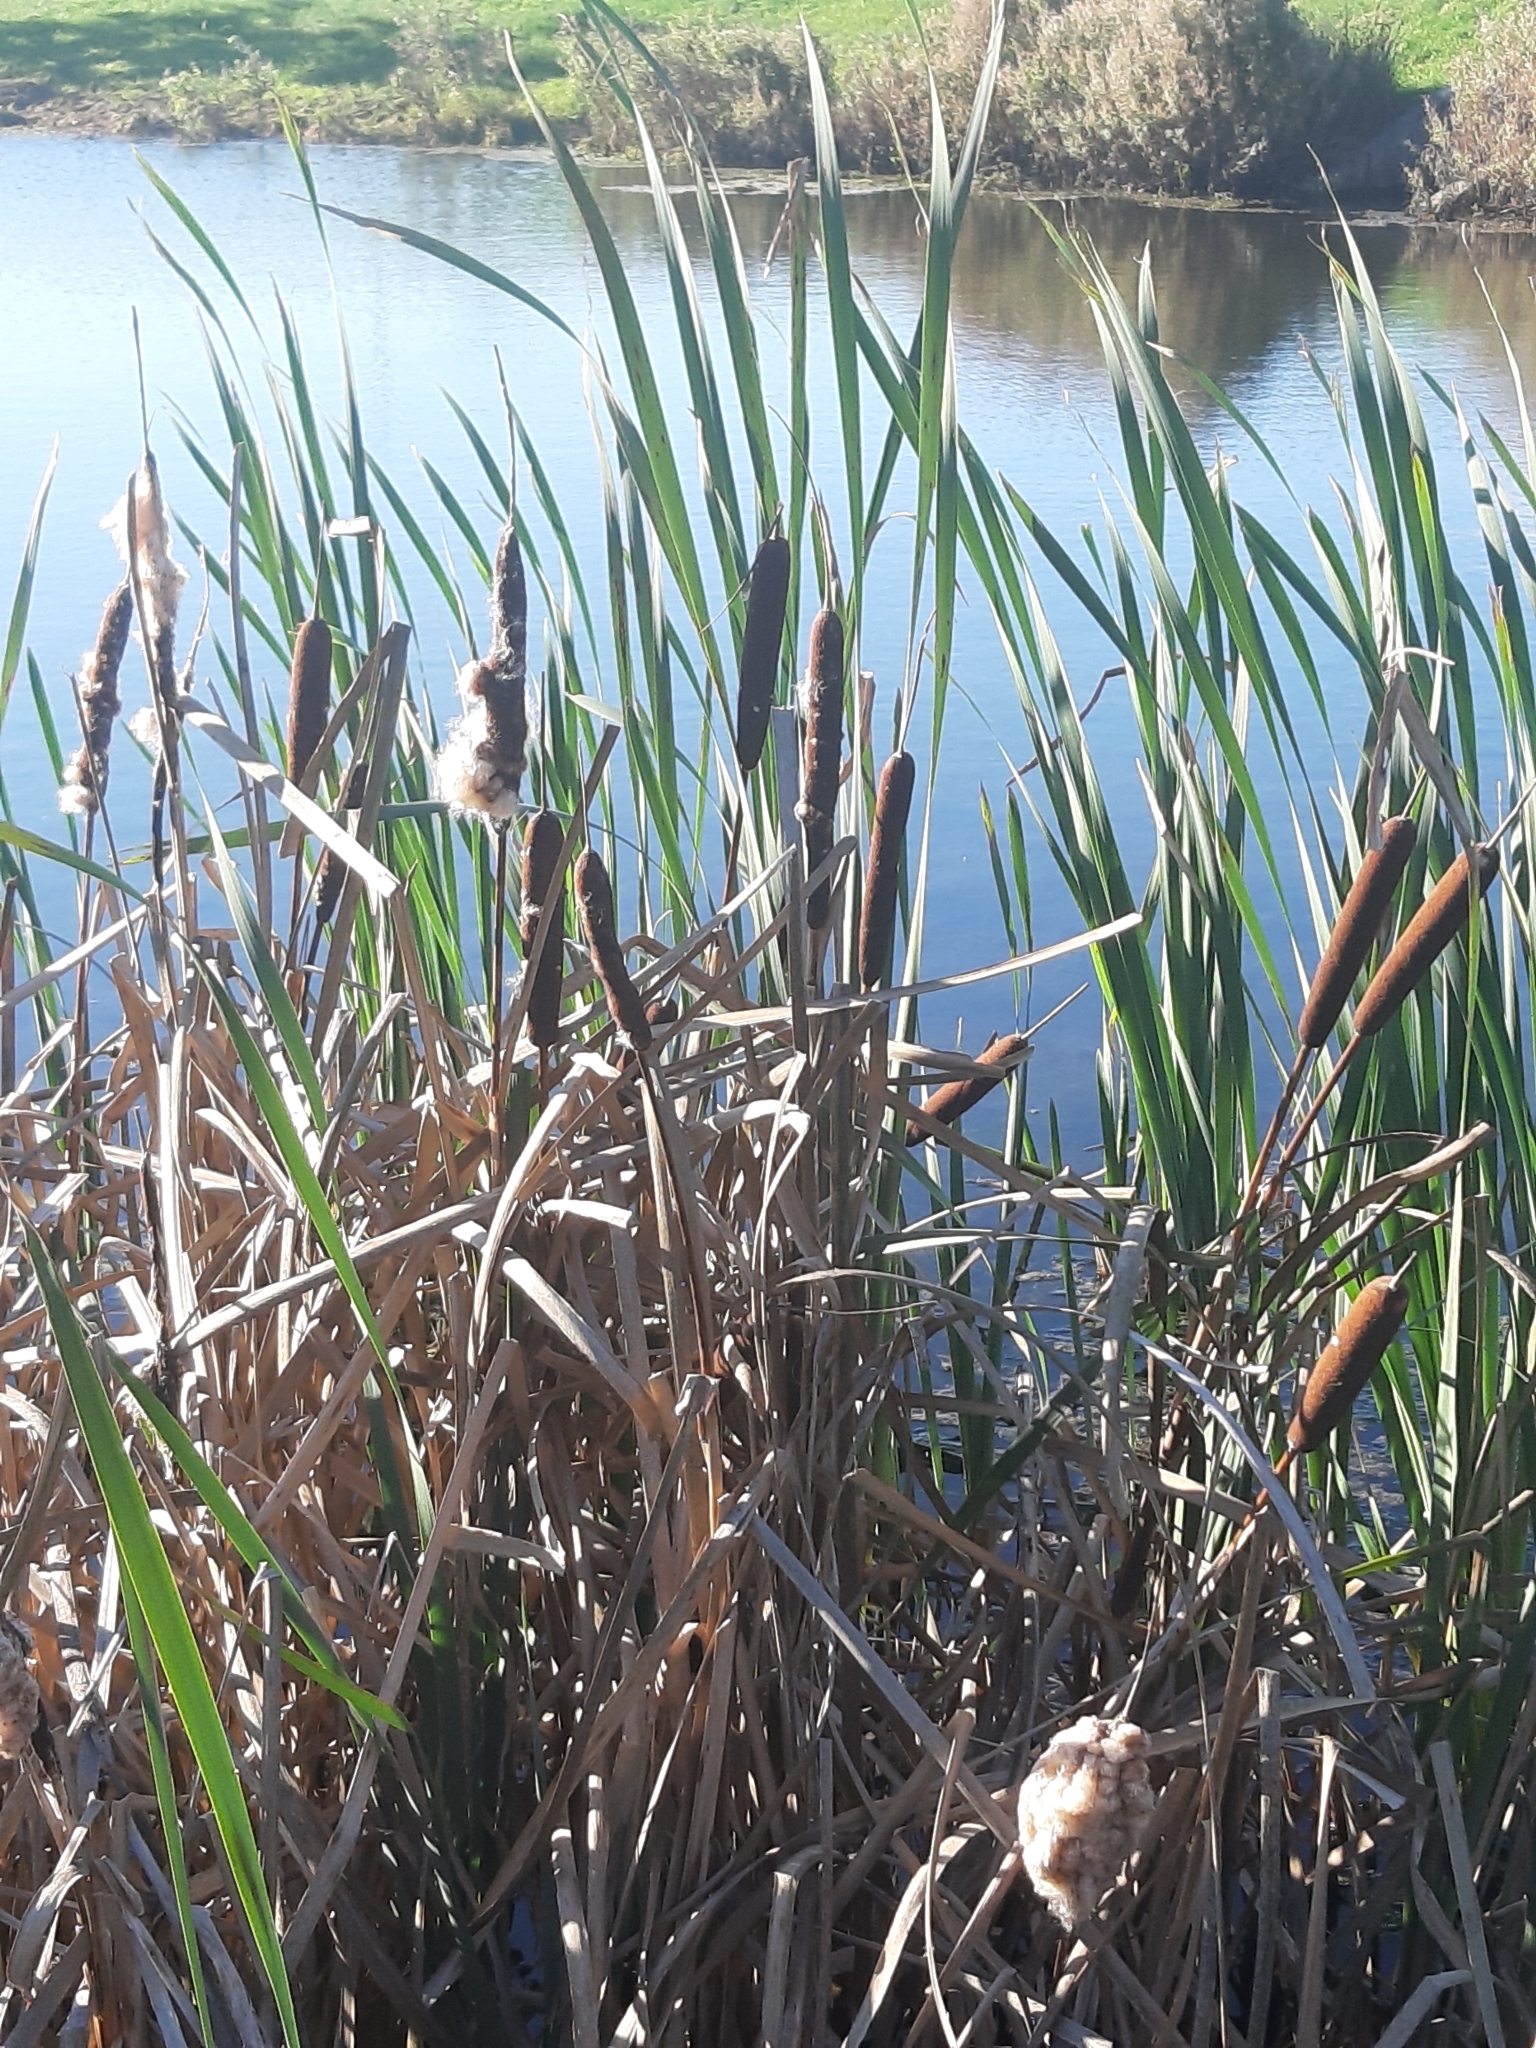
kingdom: Plantae
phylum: Tracheophyta
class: Liliopsida
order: Poales
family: Typhaceae
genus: Typha
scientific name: Typha latifolia
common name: Broadleaf cattail
